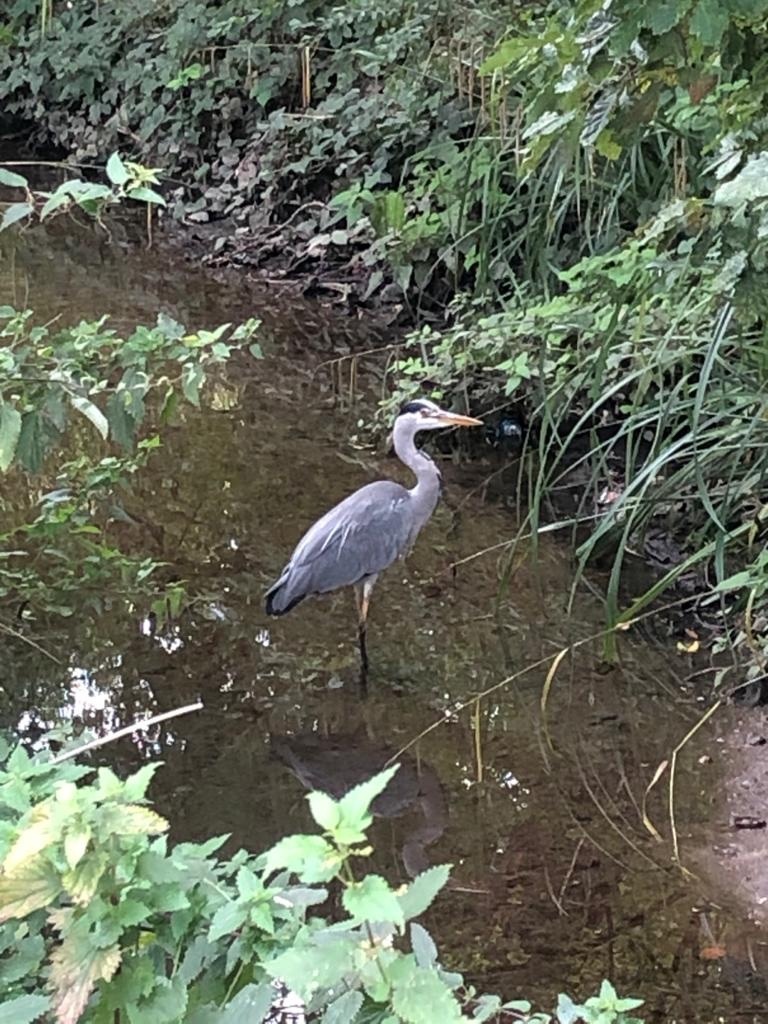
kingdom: Animalia
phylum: Chordata
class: Aves
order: Pelecaniformes
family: Ardeidae
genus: Ardea
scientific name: Ardea cinerea
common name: Grey heron
